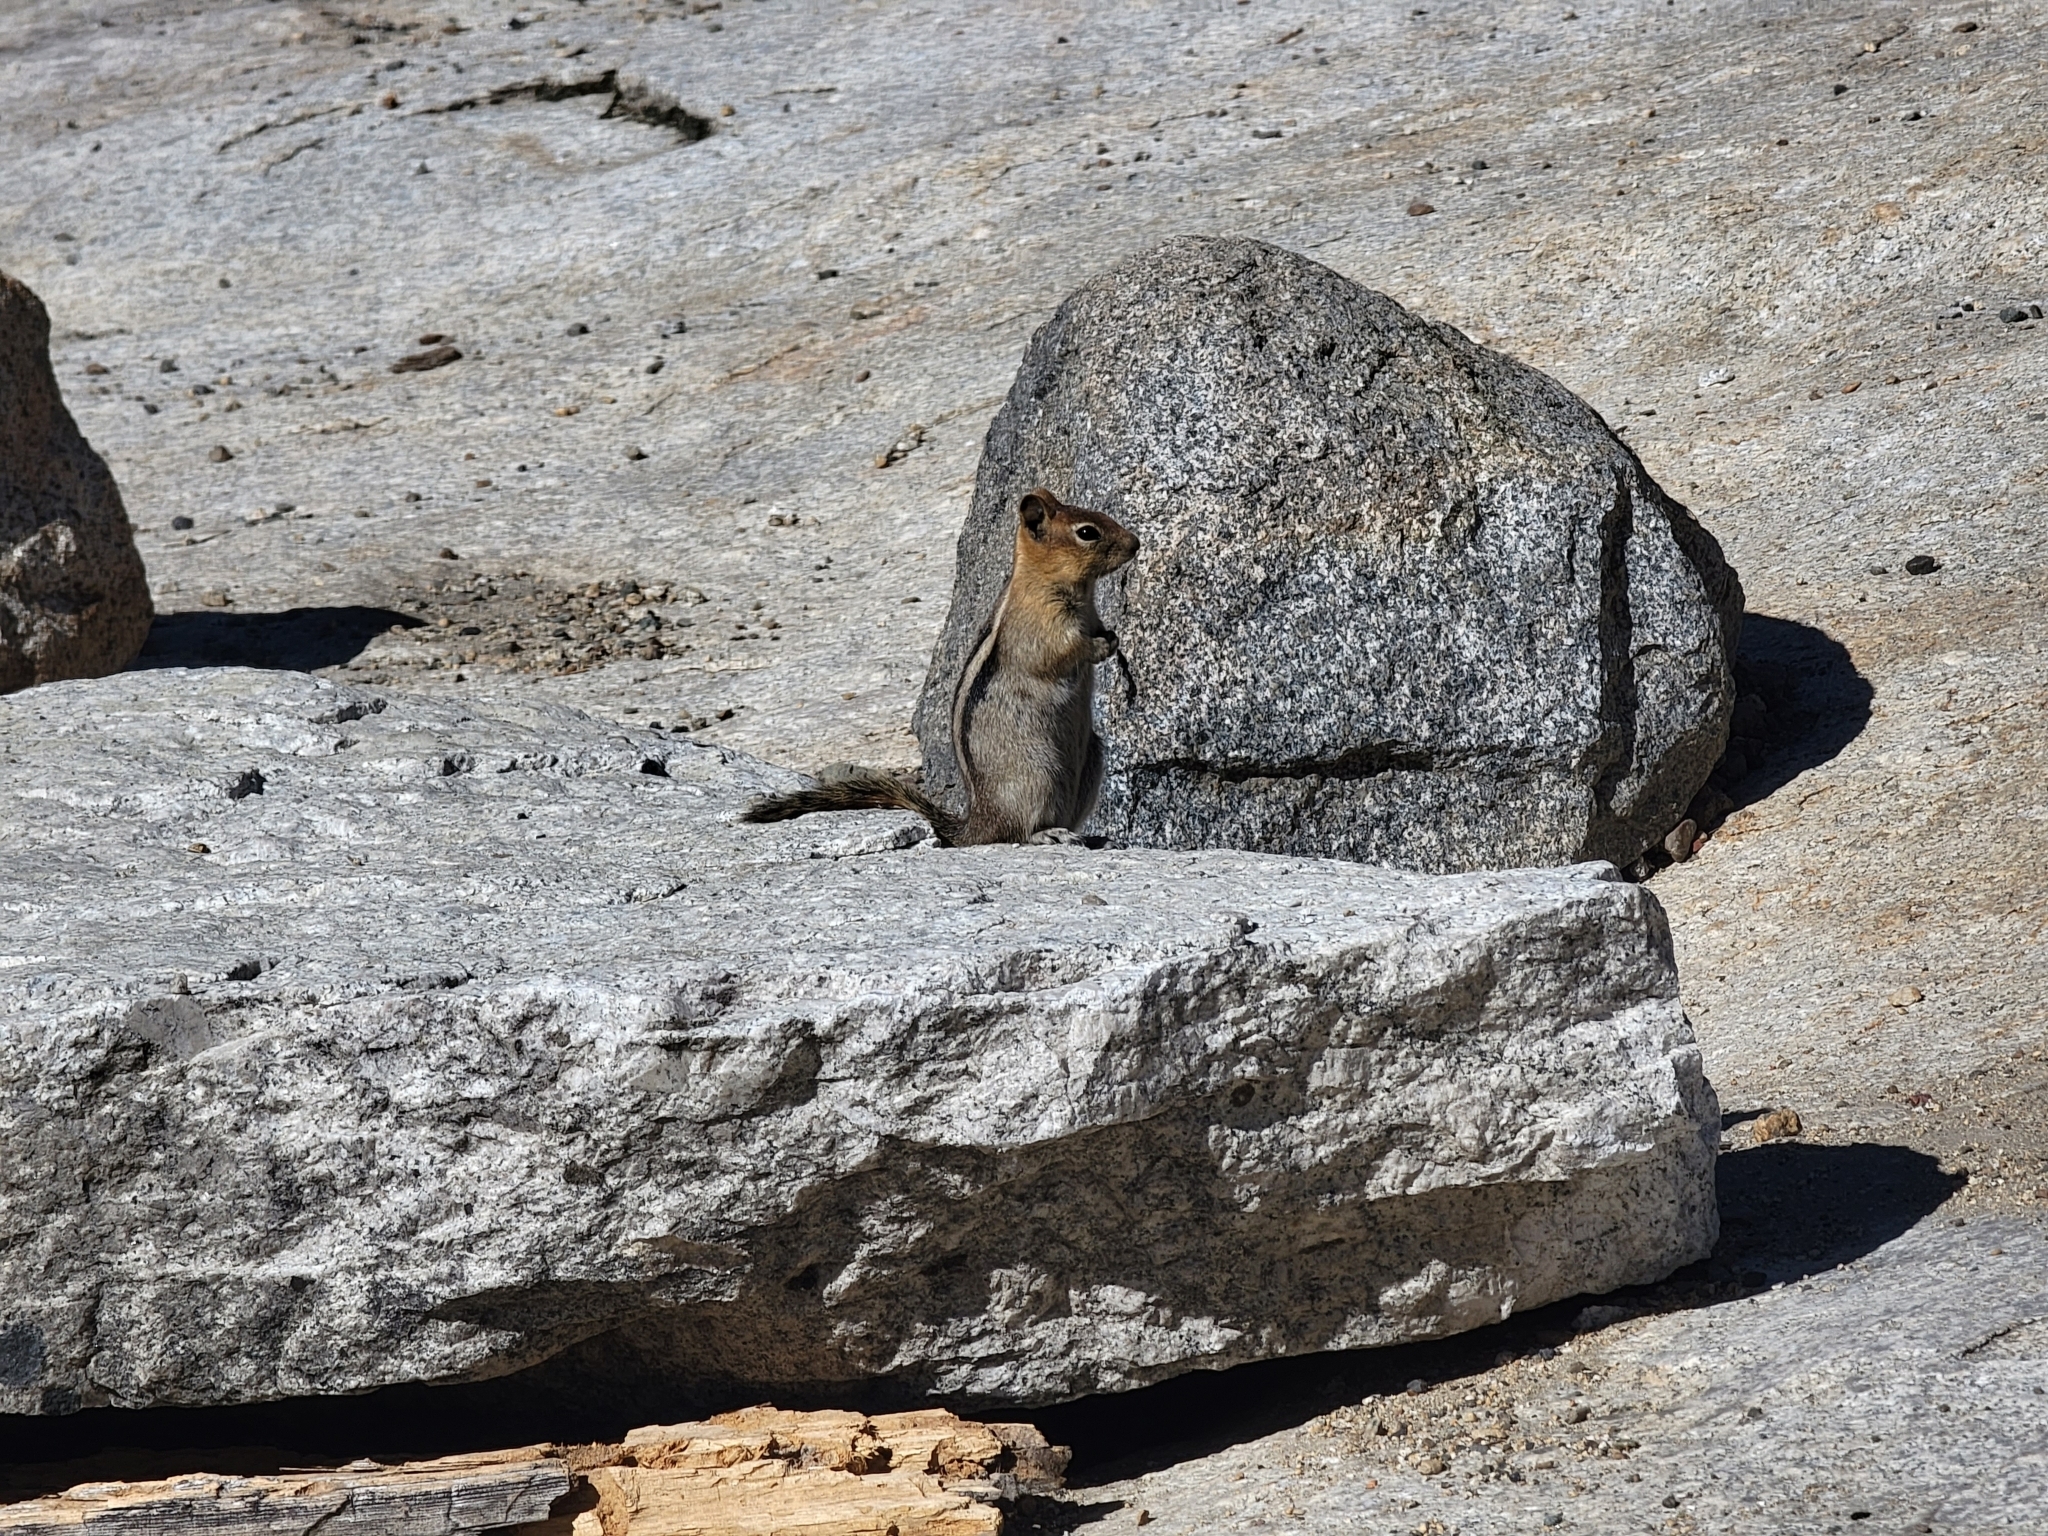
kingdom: Animalia
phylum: Chordata
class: Mammalia
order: Rodentia
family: Sciuridae
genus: Callospermophilus
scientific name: Callospermophilus lateralis
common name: Golden-mantled ground squirrel
